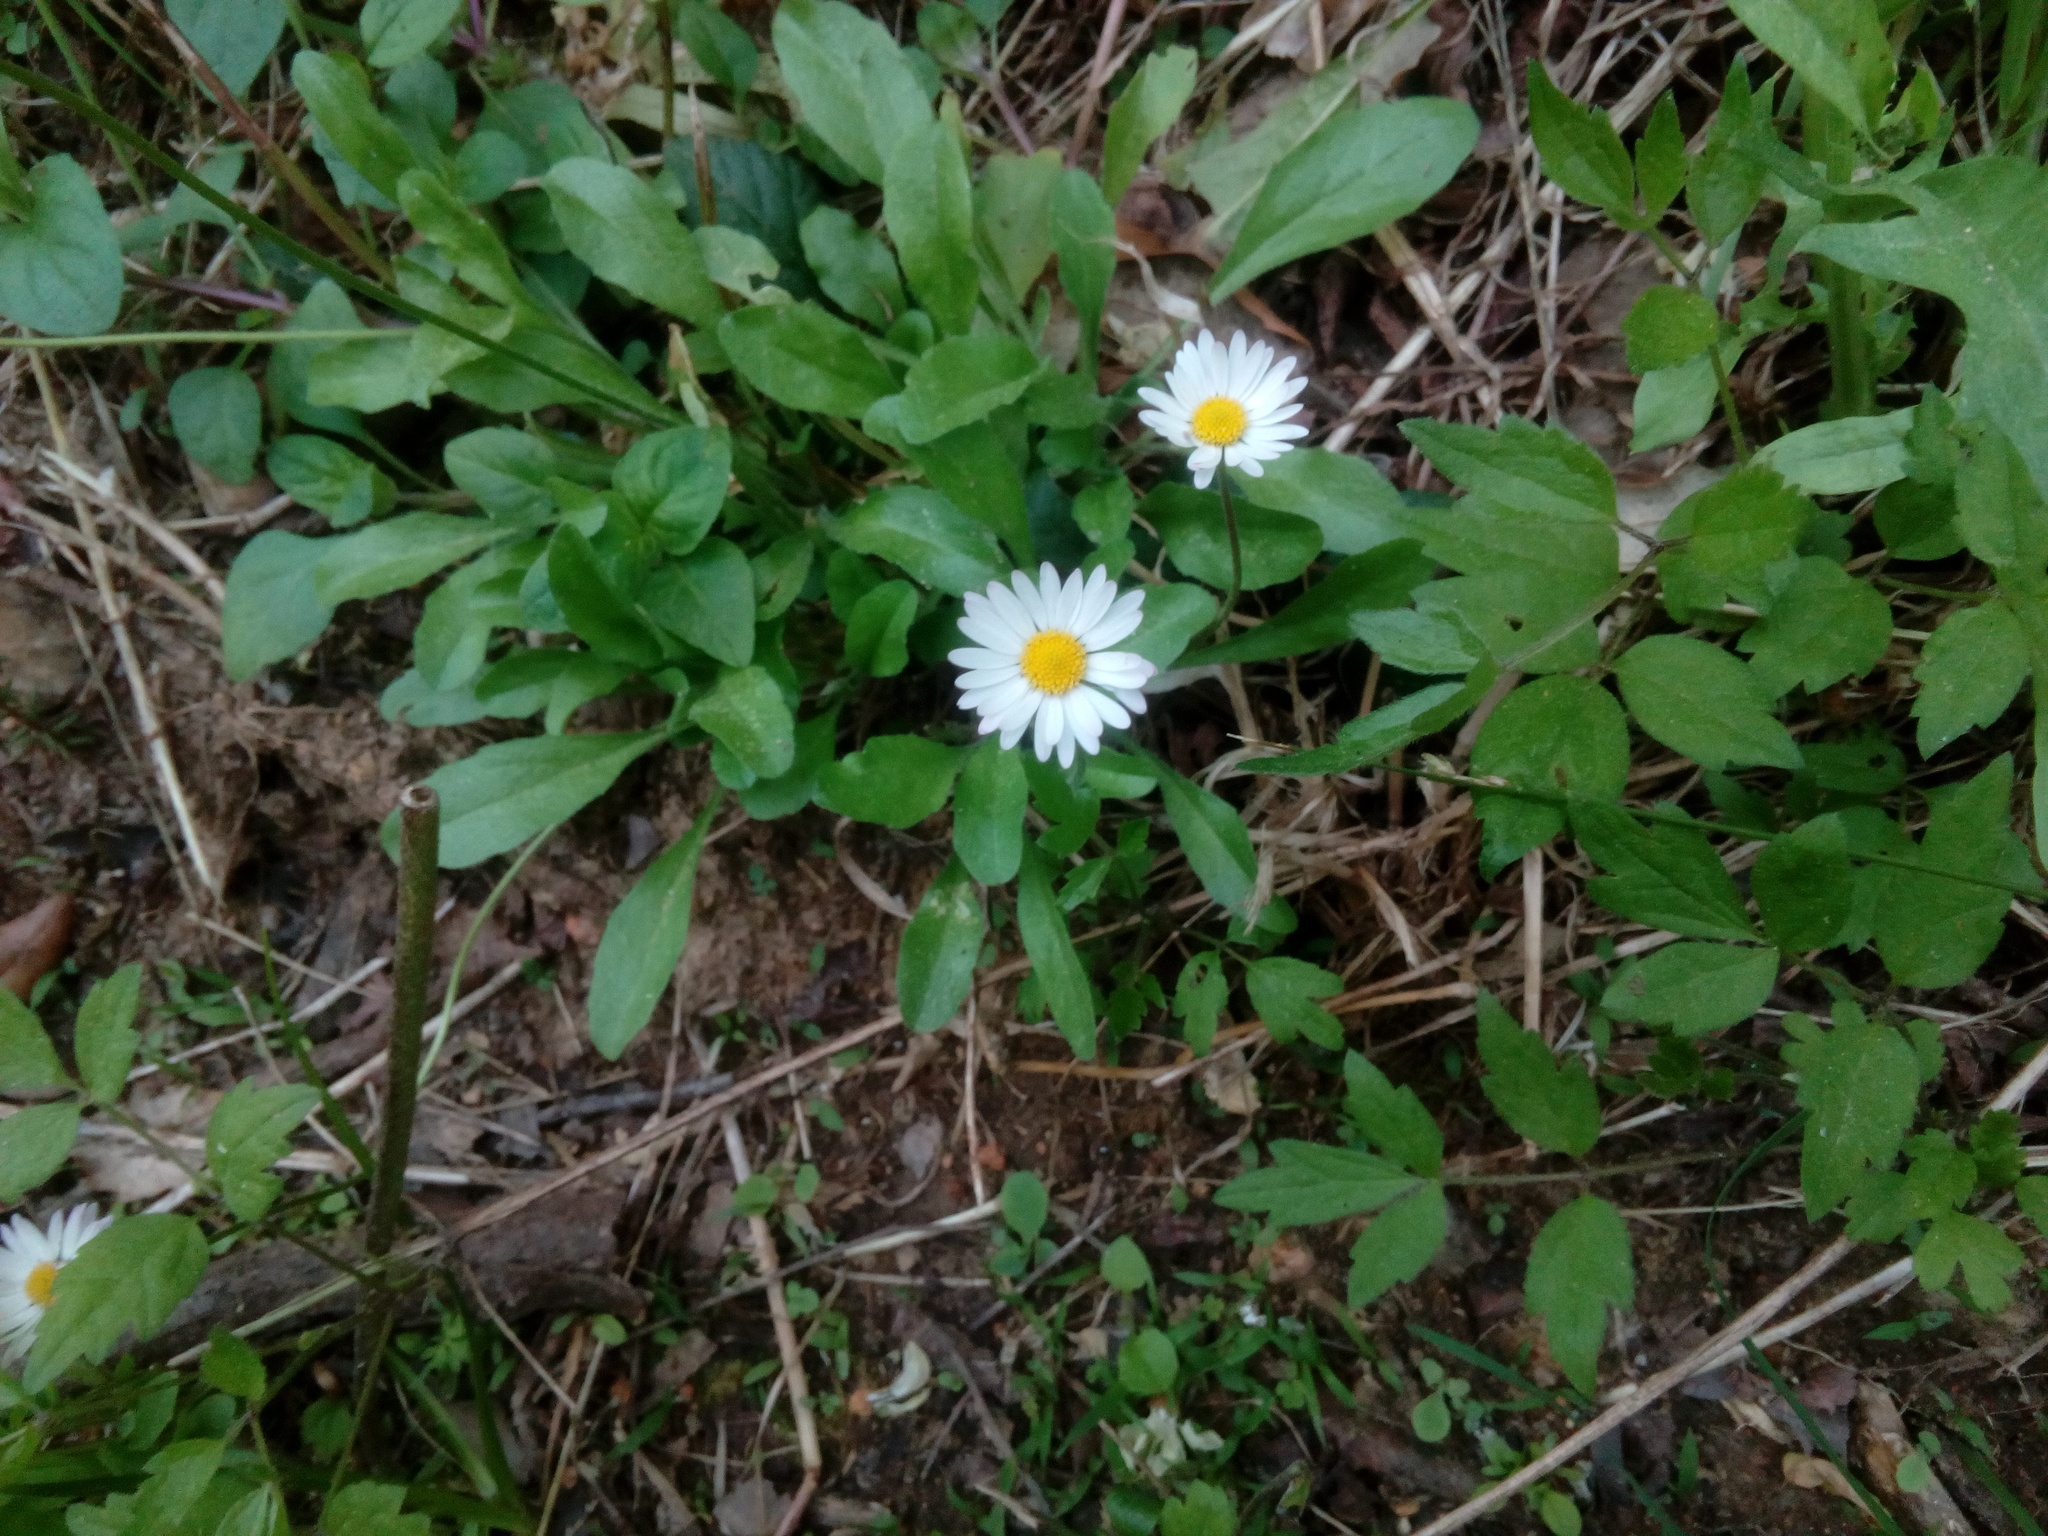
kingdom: Plantae
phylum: Tracheophyta
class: Magnoliopsida
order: Asterales
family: Asteraceae
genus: Bellis
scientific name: Bellis perennis
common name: Lawndaisy
